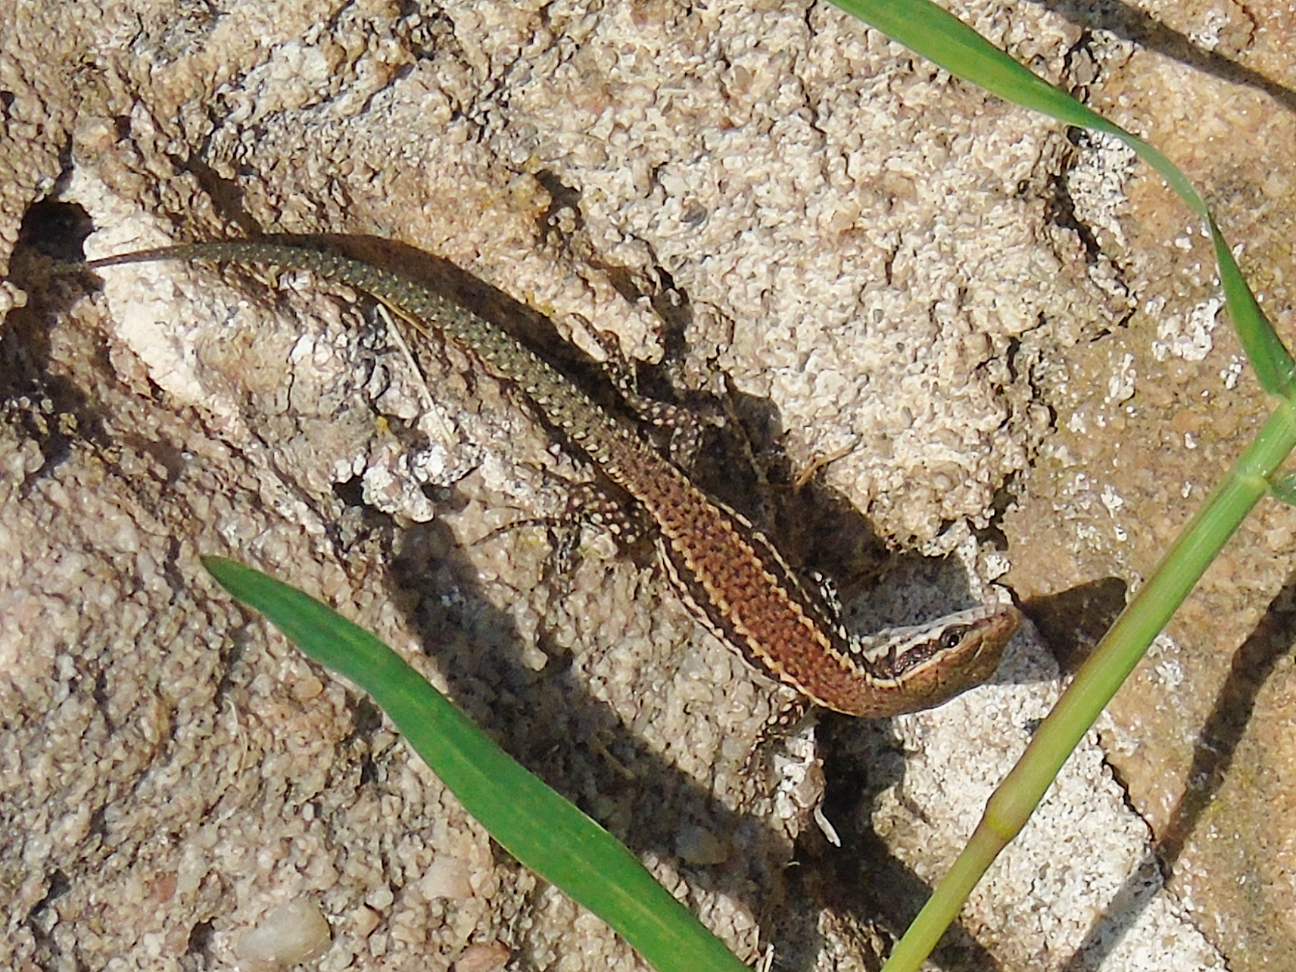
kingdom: Animalia
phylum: Chordata
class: Squamata
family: Lacertidae
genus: Podarcis
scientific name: Podarcis muralis
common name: Common wall lizard
